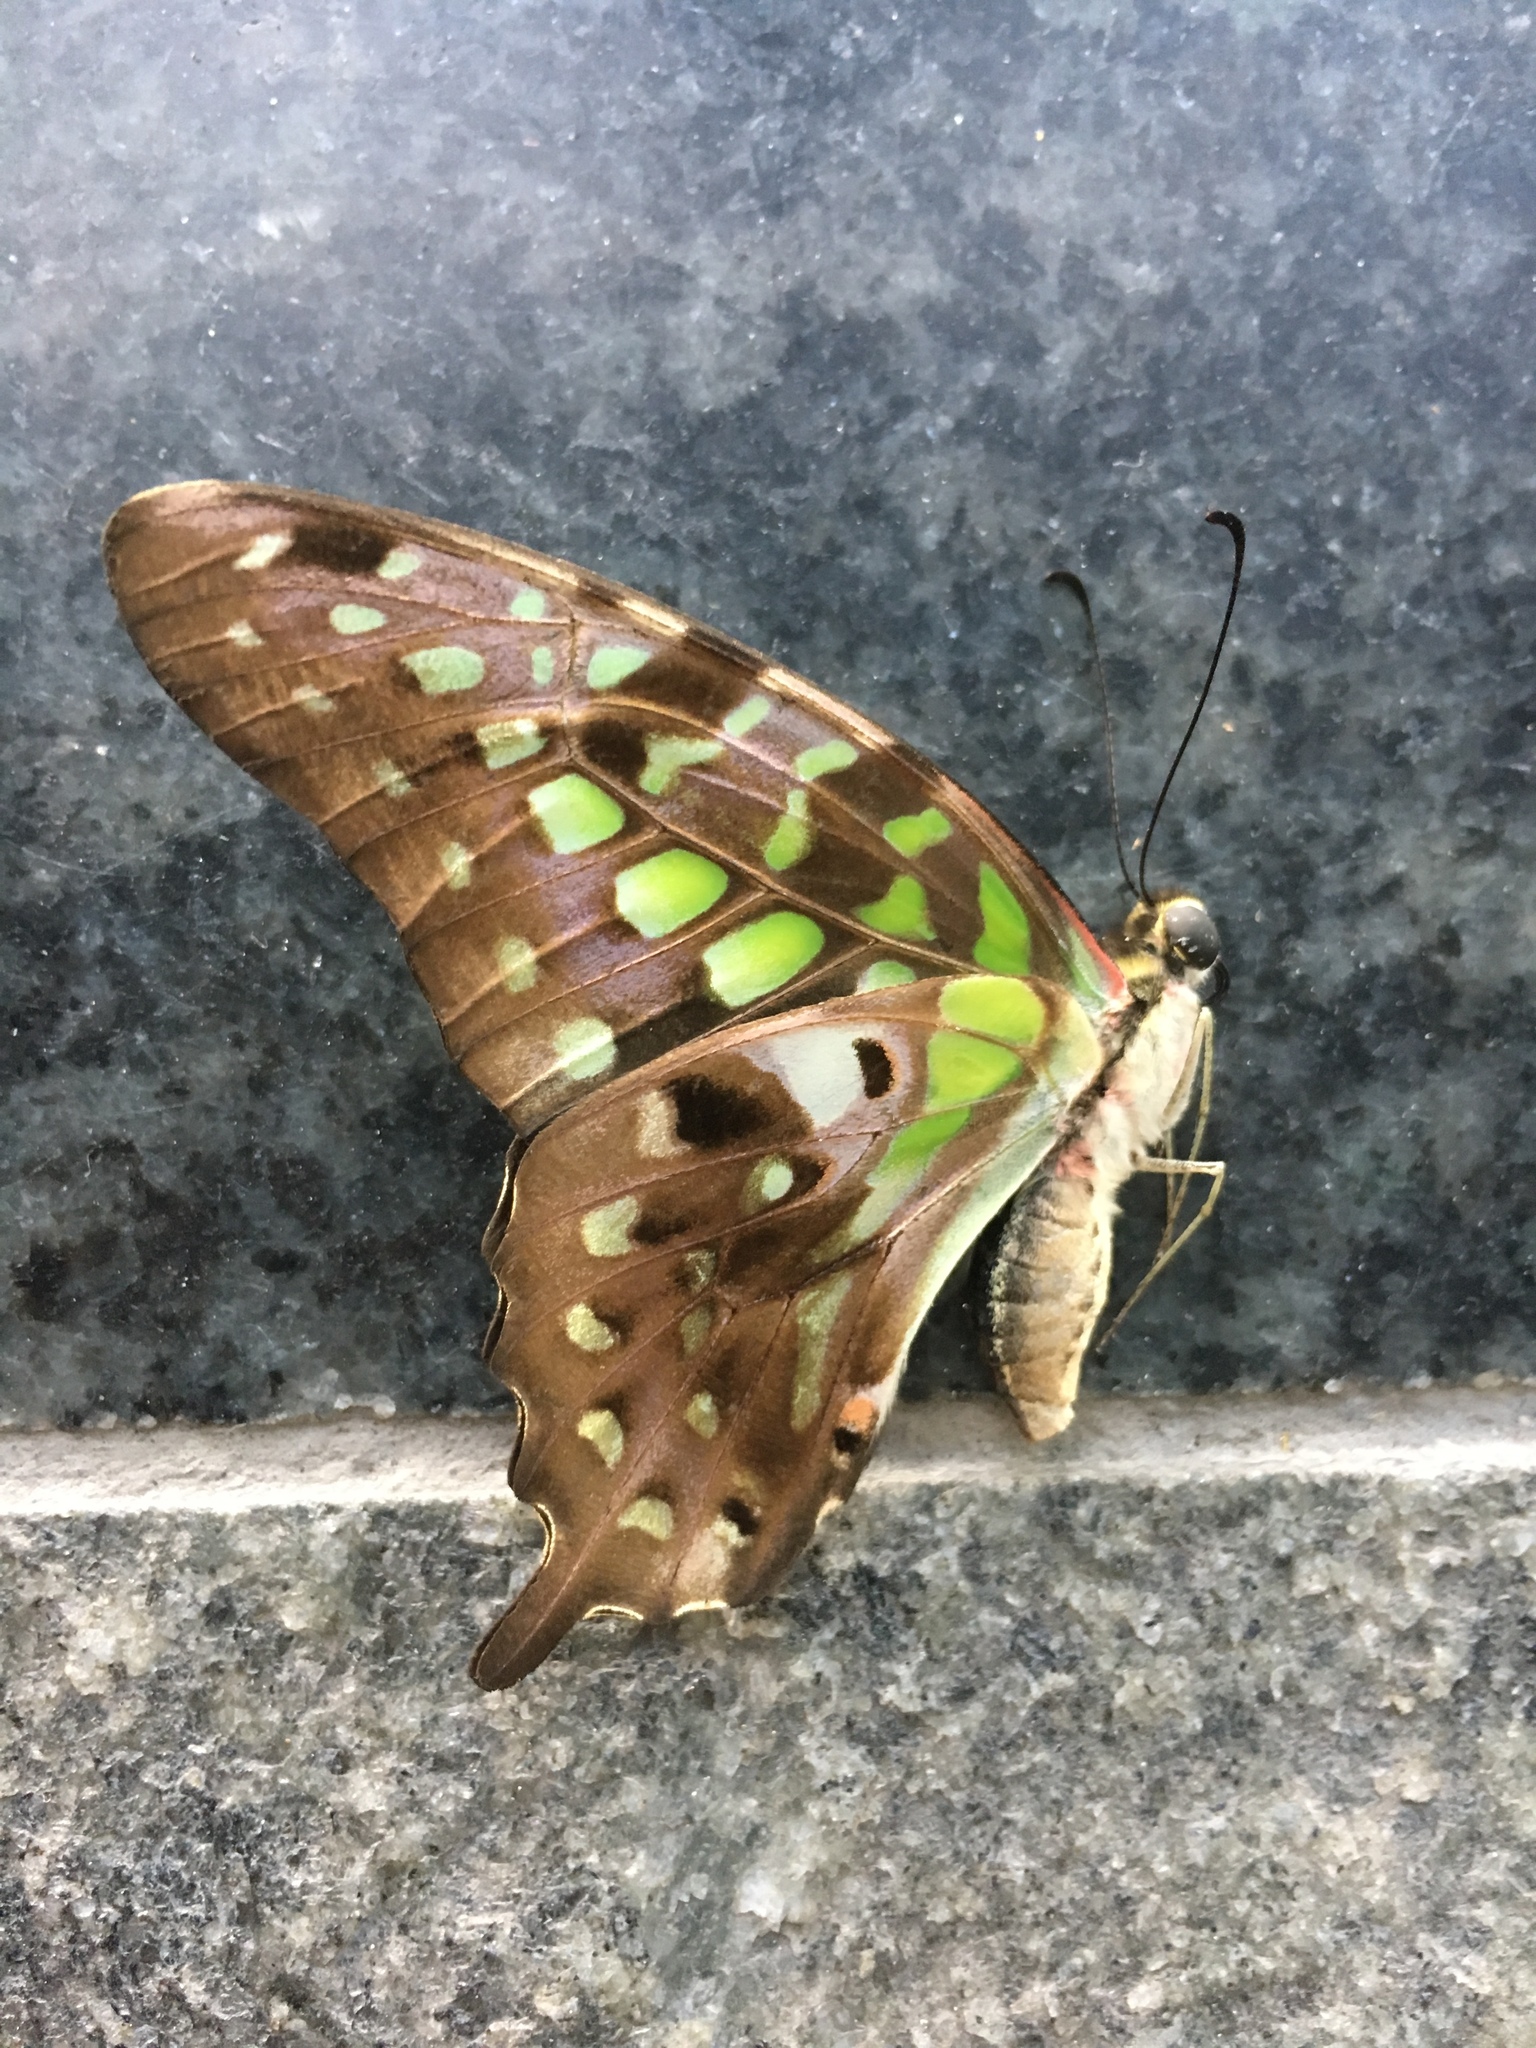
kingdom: Animalia
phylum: Arthropoda
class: Insecta
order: Lepidoptera
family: Papilionidae
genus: Graphium
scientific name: Graphium agamemnon
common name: Tailed jay
